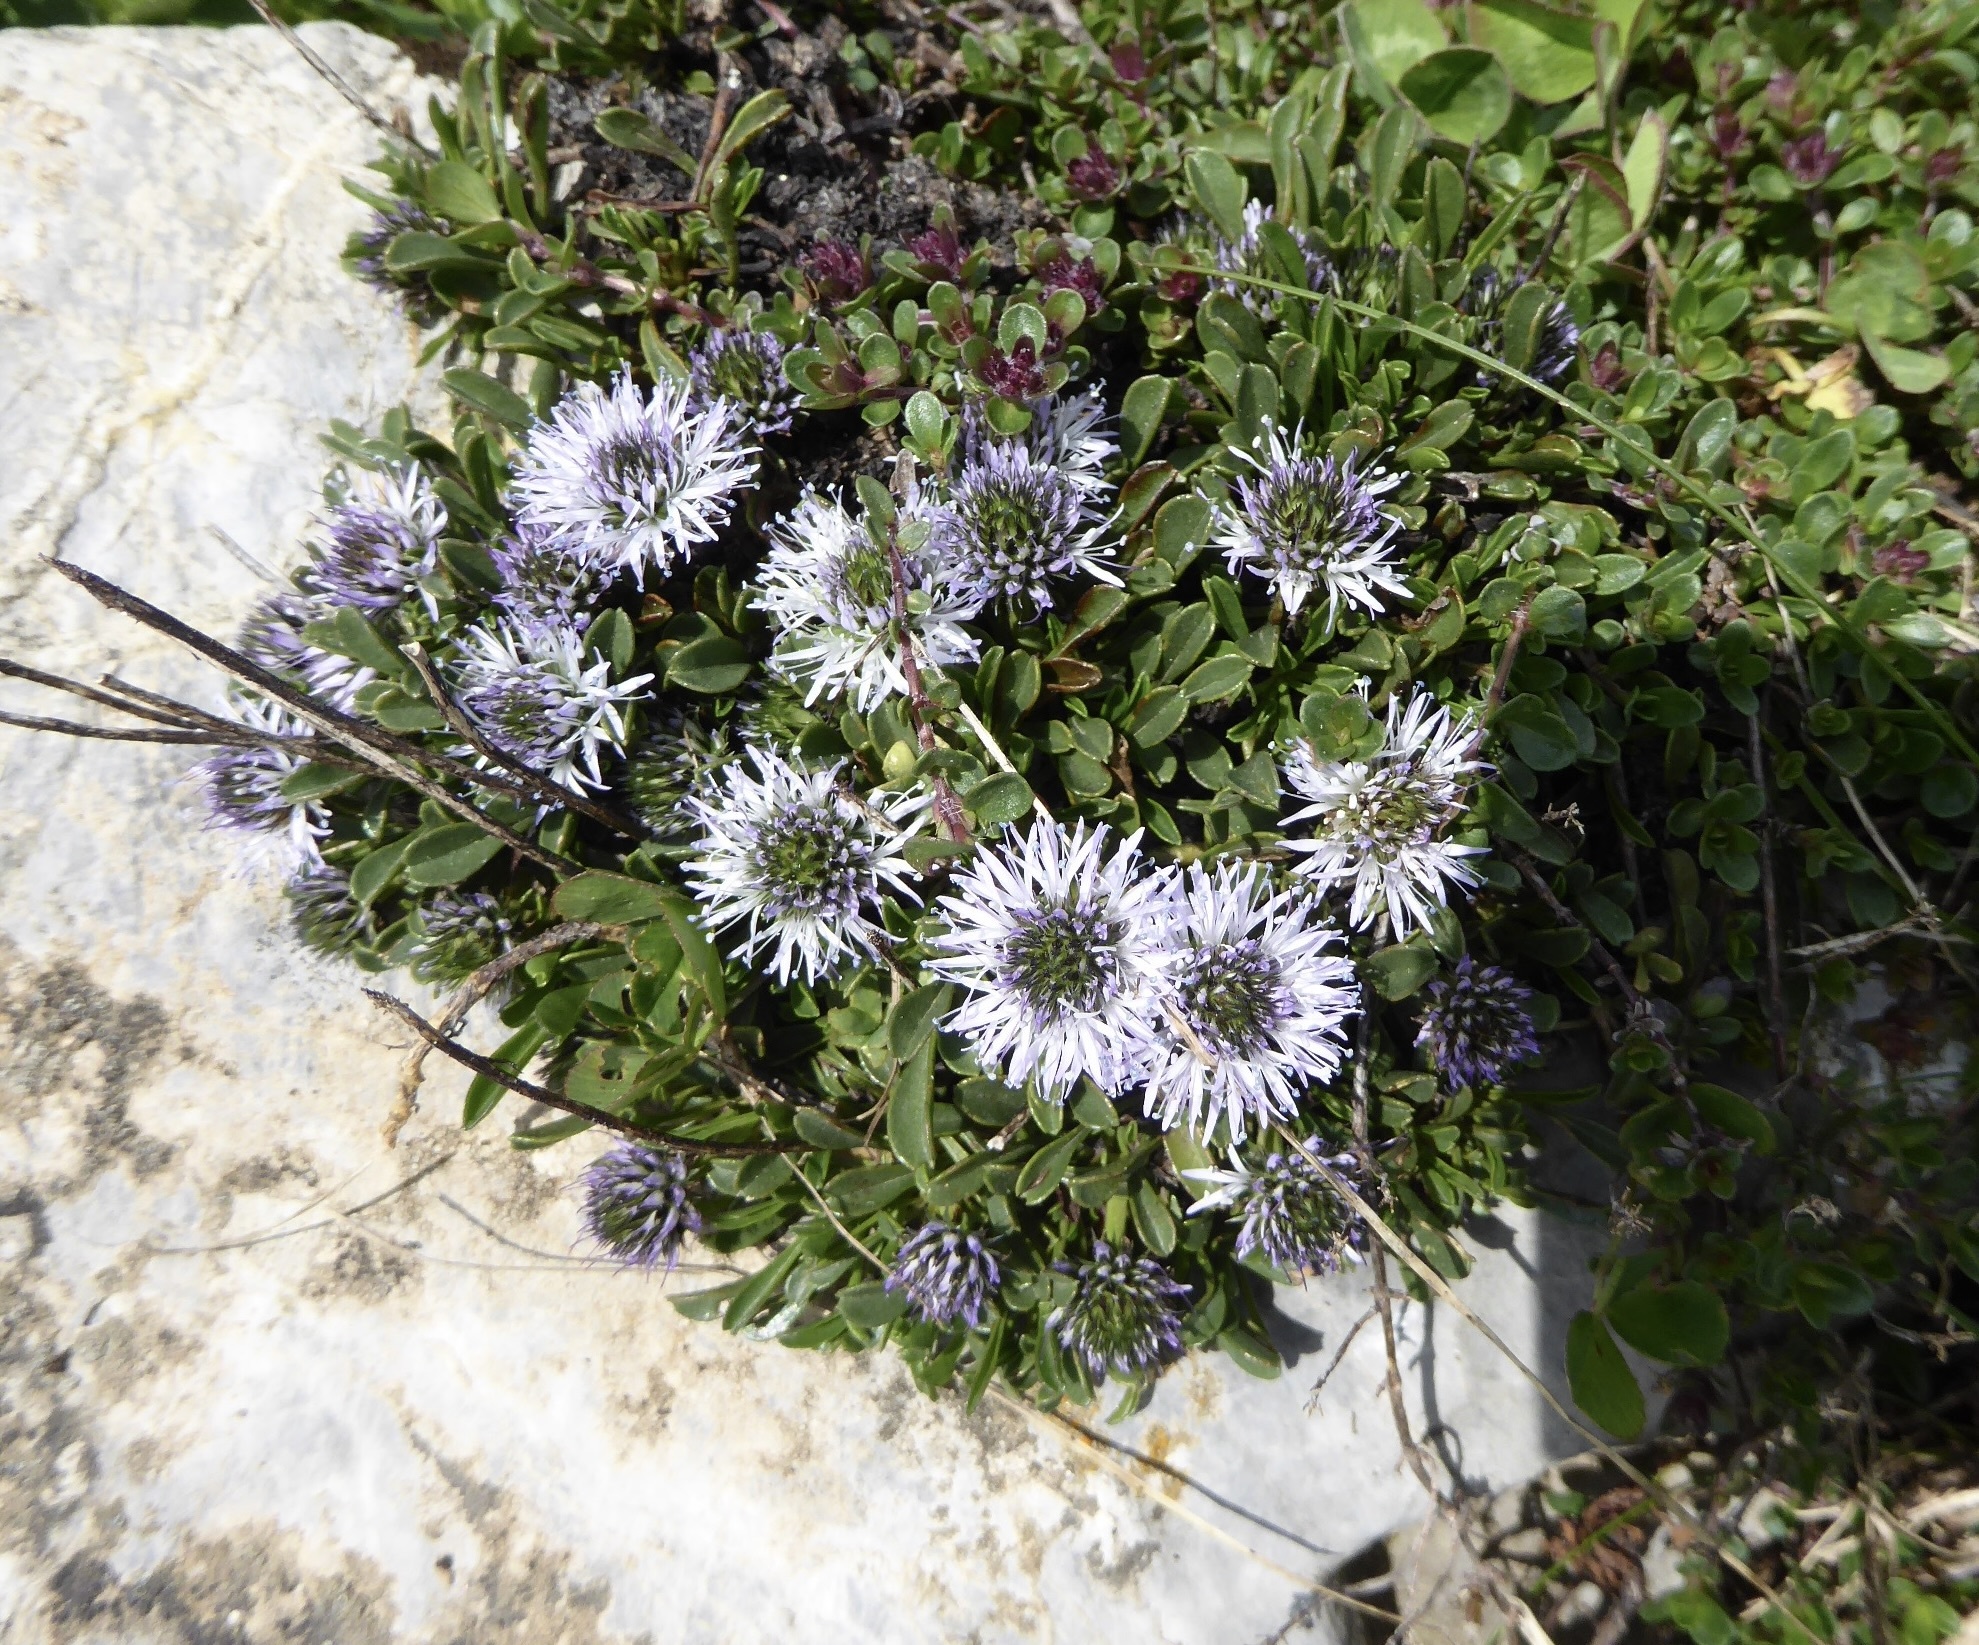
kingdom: Plantae
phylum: Tracheophyta
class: Magnoliopsida
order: Lamiales
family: Plantaginaceae
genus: Globularia
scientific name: Globularia cordifolia
